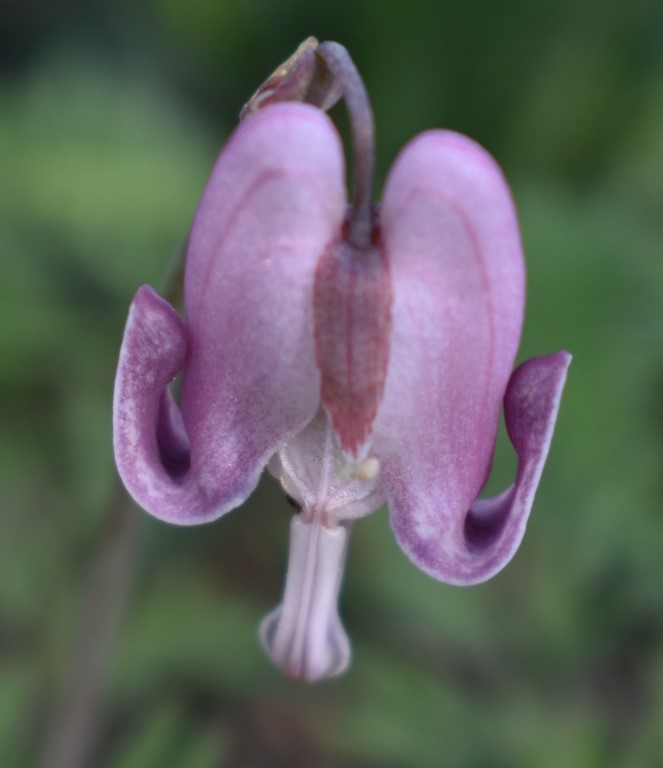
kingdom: Plantae
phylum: Tracheophyta
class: Magnoliopsida
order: Ranunculales
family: Papaveraceae
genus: Dicentra
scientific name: Dicentra pauciflora
